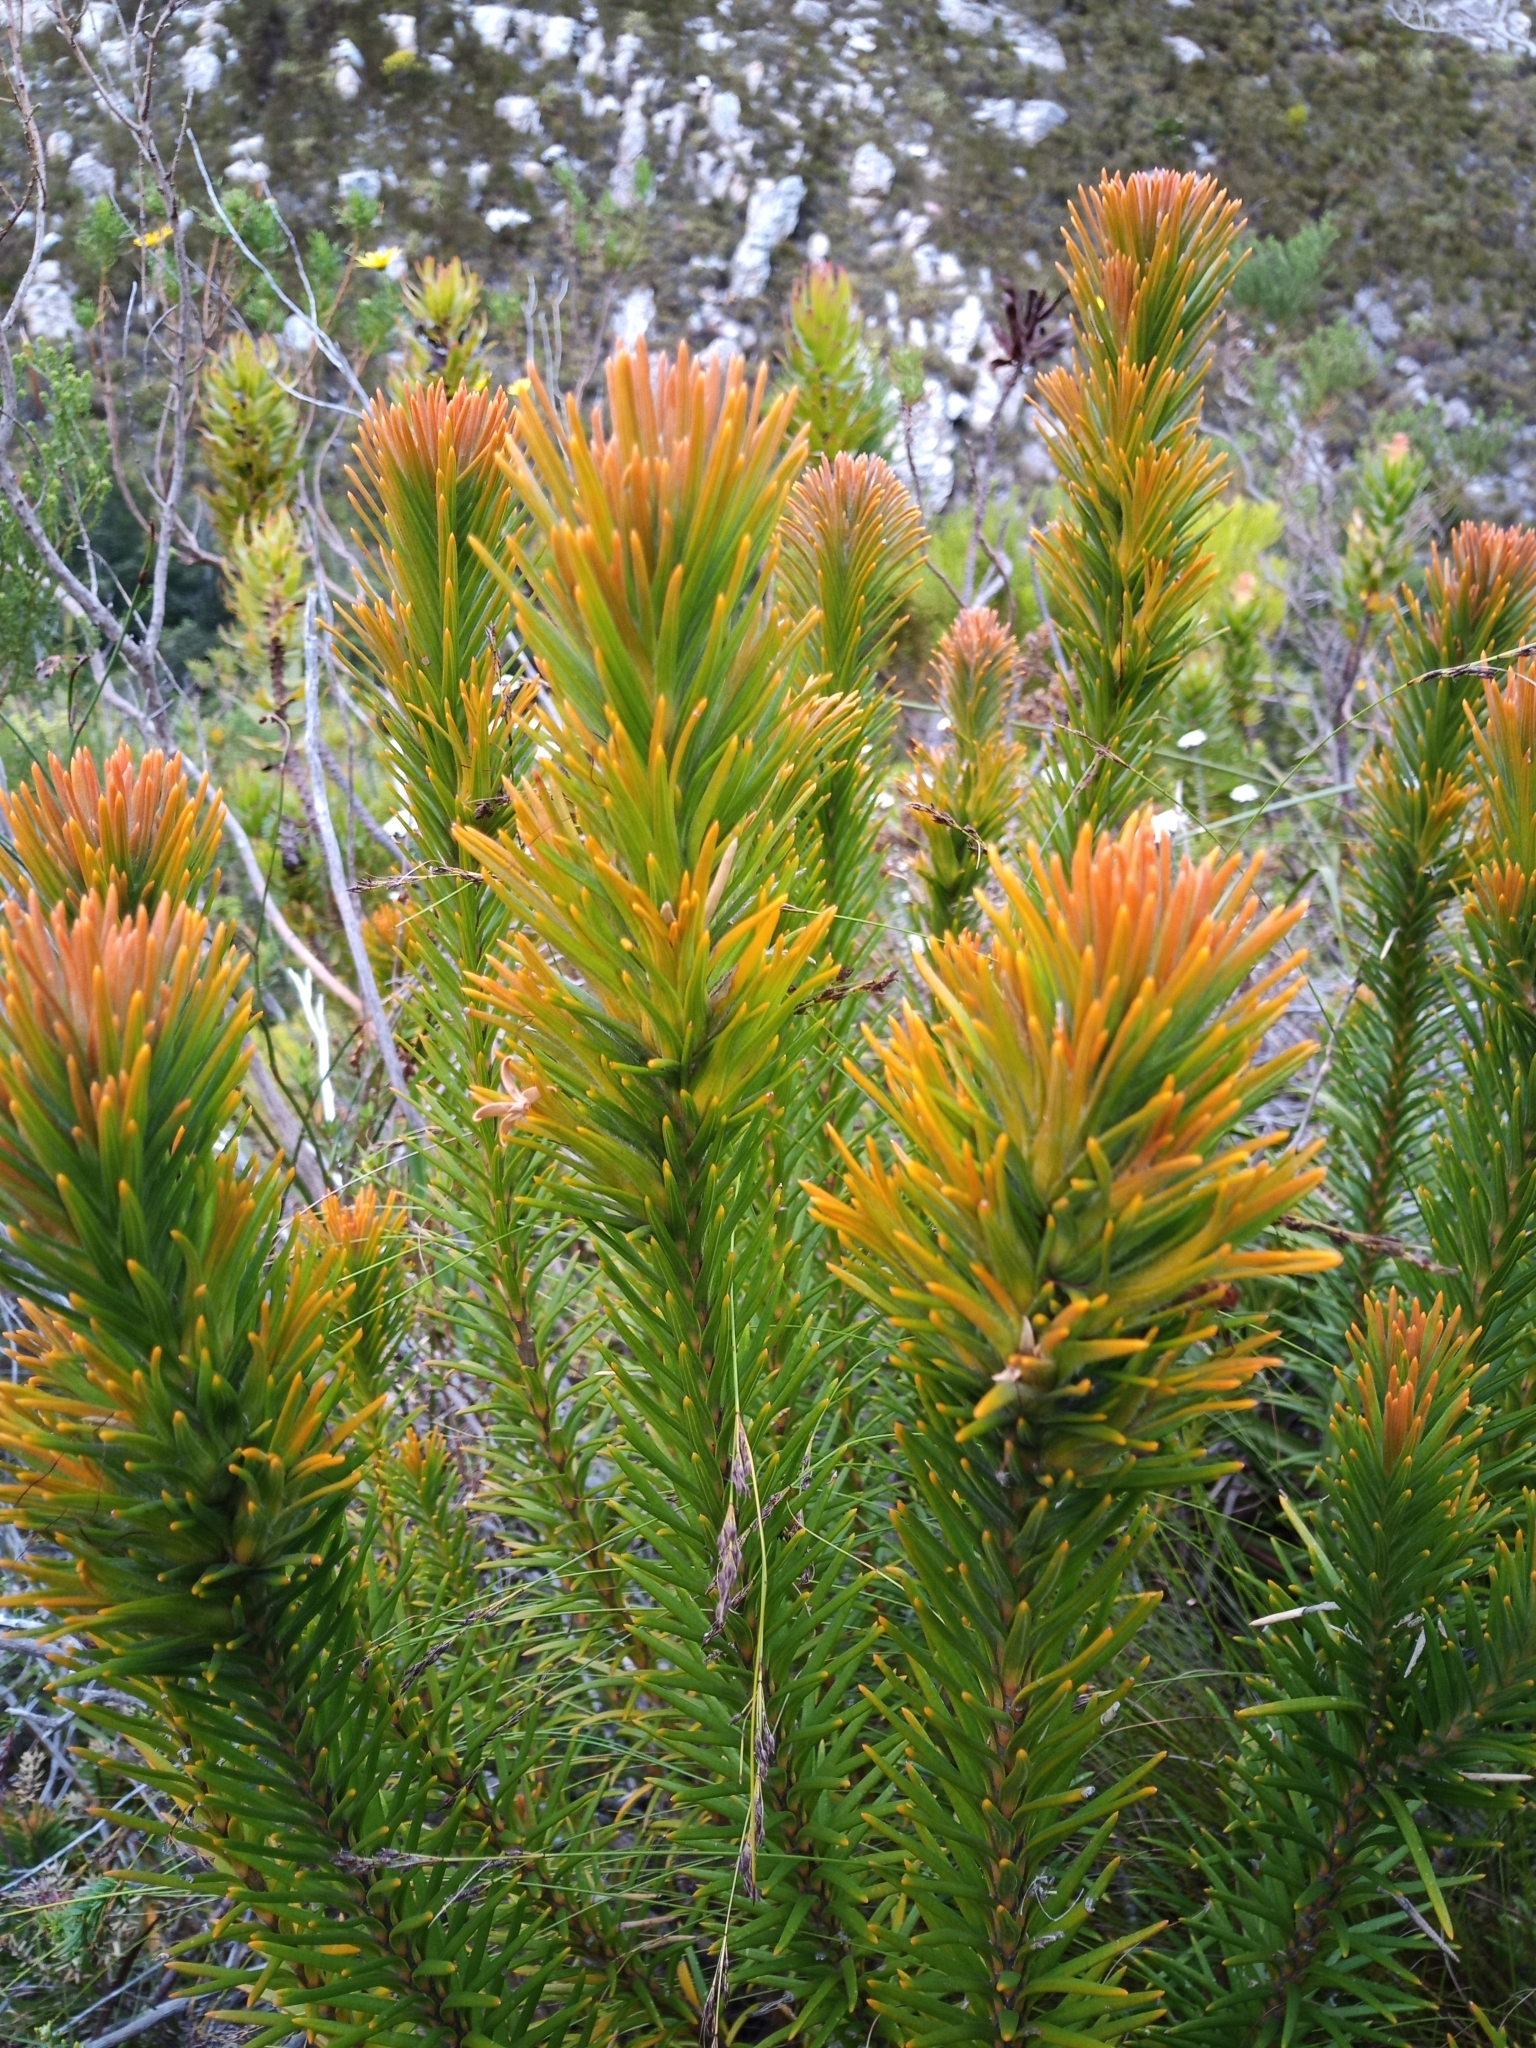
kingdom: Plantae
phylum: Tracheophyta
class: Magnoliopsida
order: Lamiales
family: Stilbaceae
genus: Retzia
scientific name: Retzia capensis
